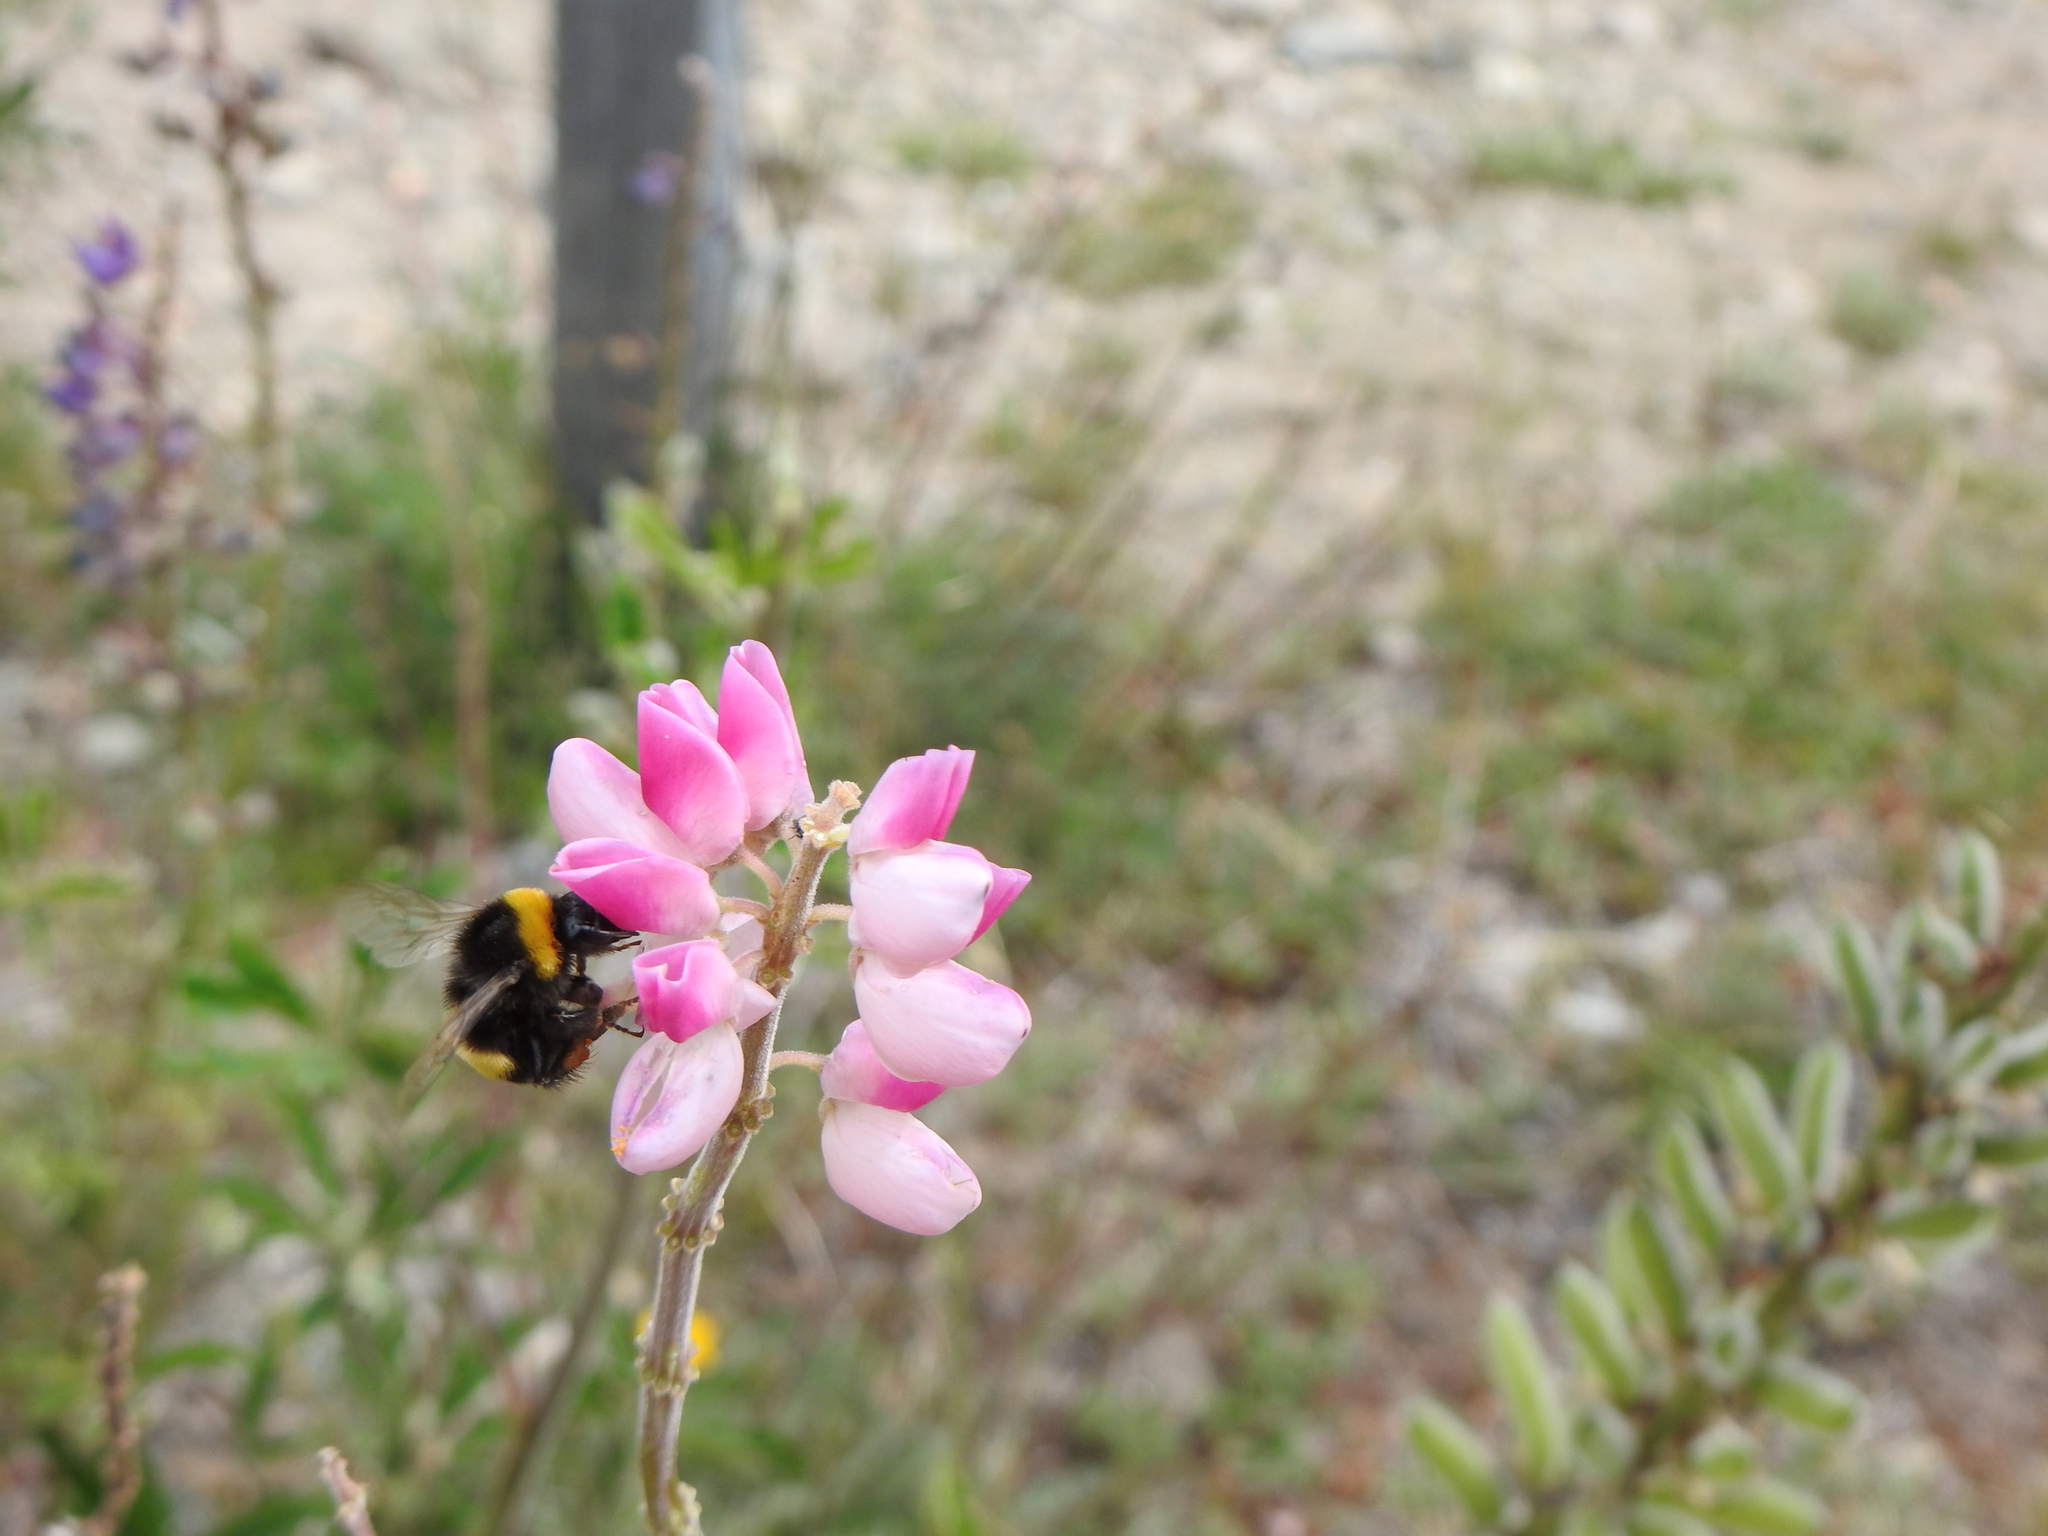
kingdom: Animalia
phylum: Arthropoda
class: Insecta
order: Hymenoptera
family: Apidae
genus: Bombus
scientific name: Bombus terrestris
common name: Buff-tailed bumblebee
